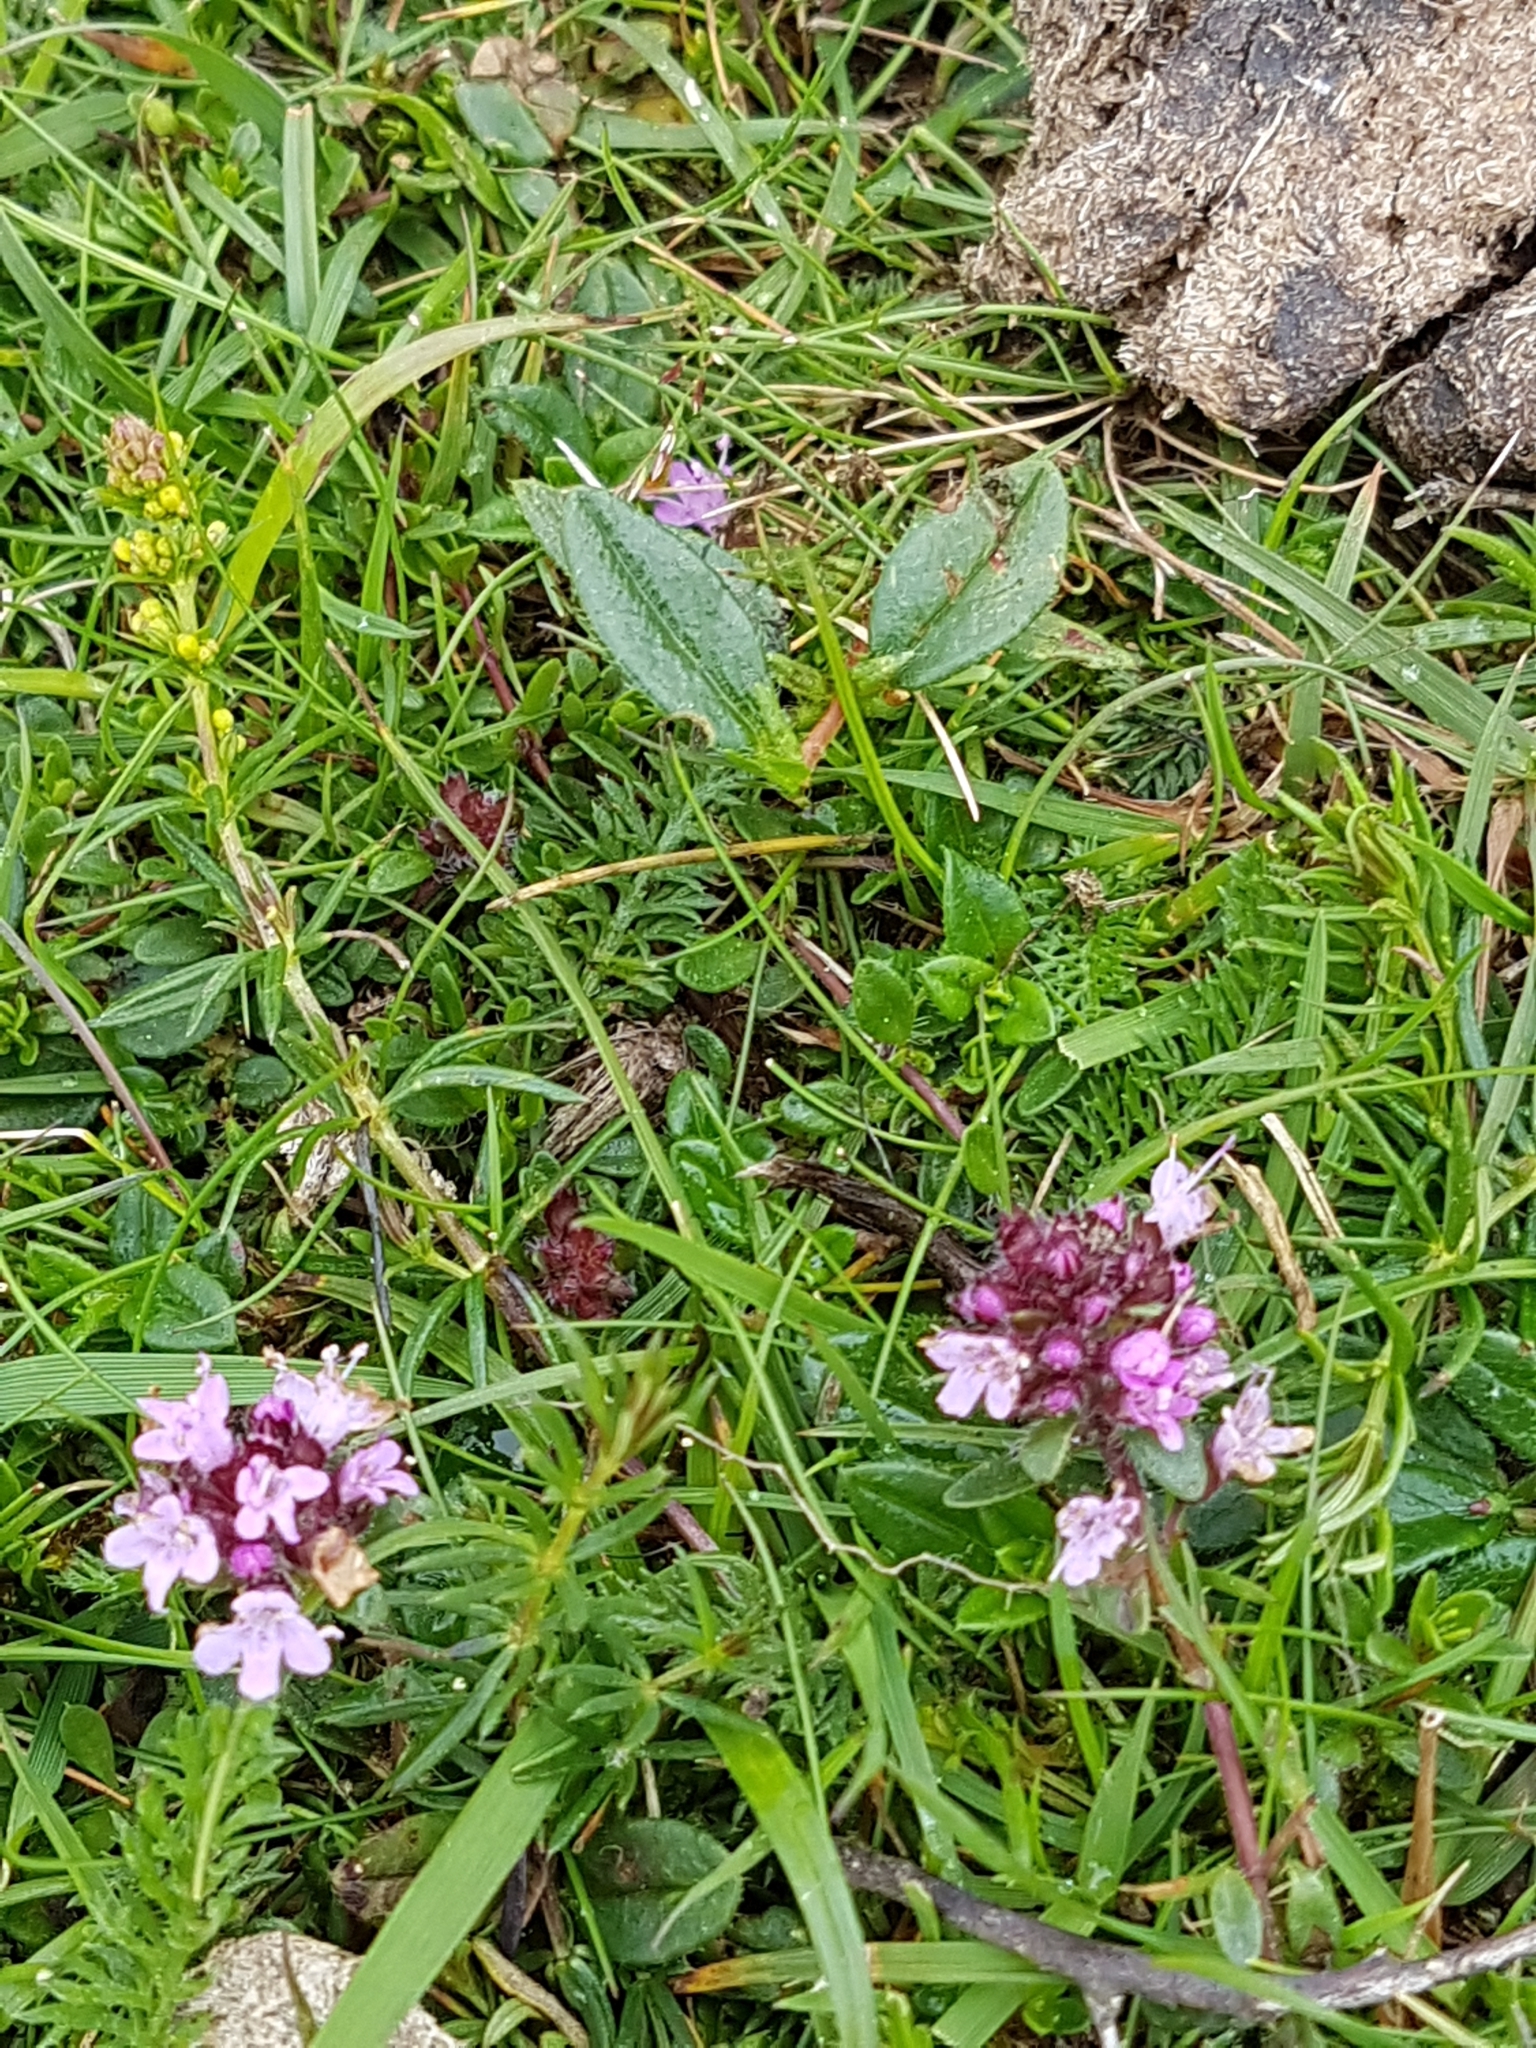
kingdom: Plantae
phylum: Tracheophyta
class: Magnoliopsida
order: Lamiales
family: Lamiaceae
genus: Thymus
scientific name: Thymus praecox
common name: Wild thyme
